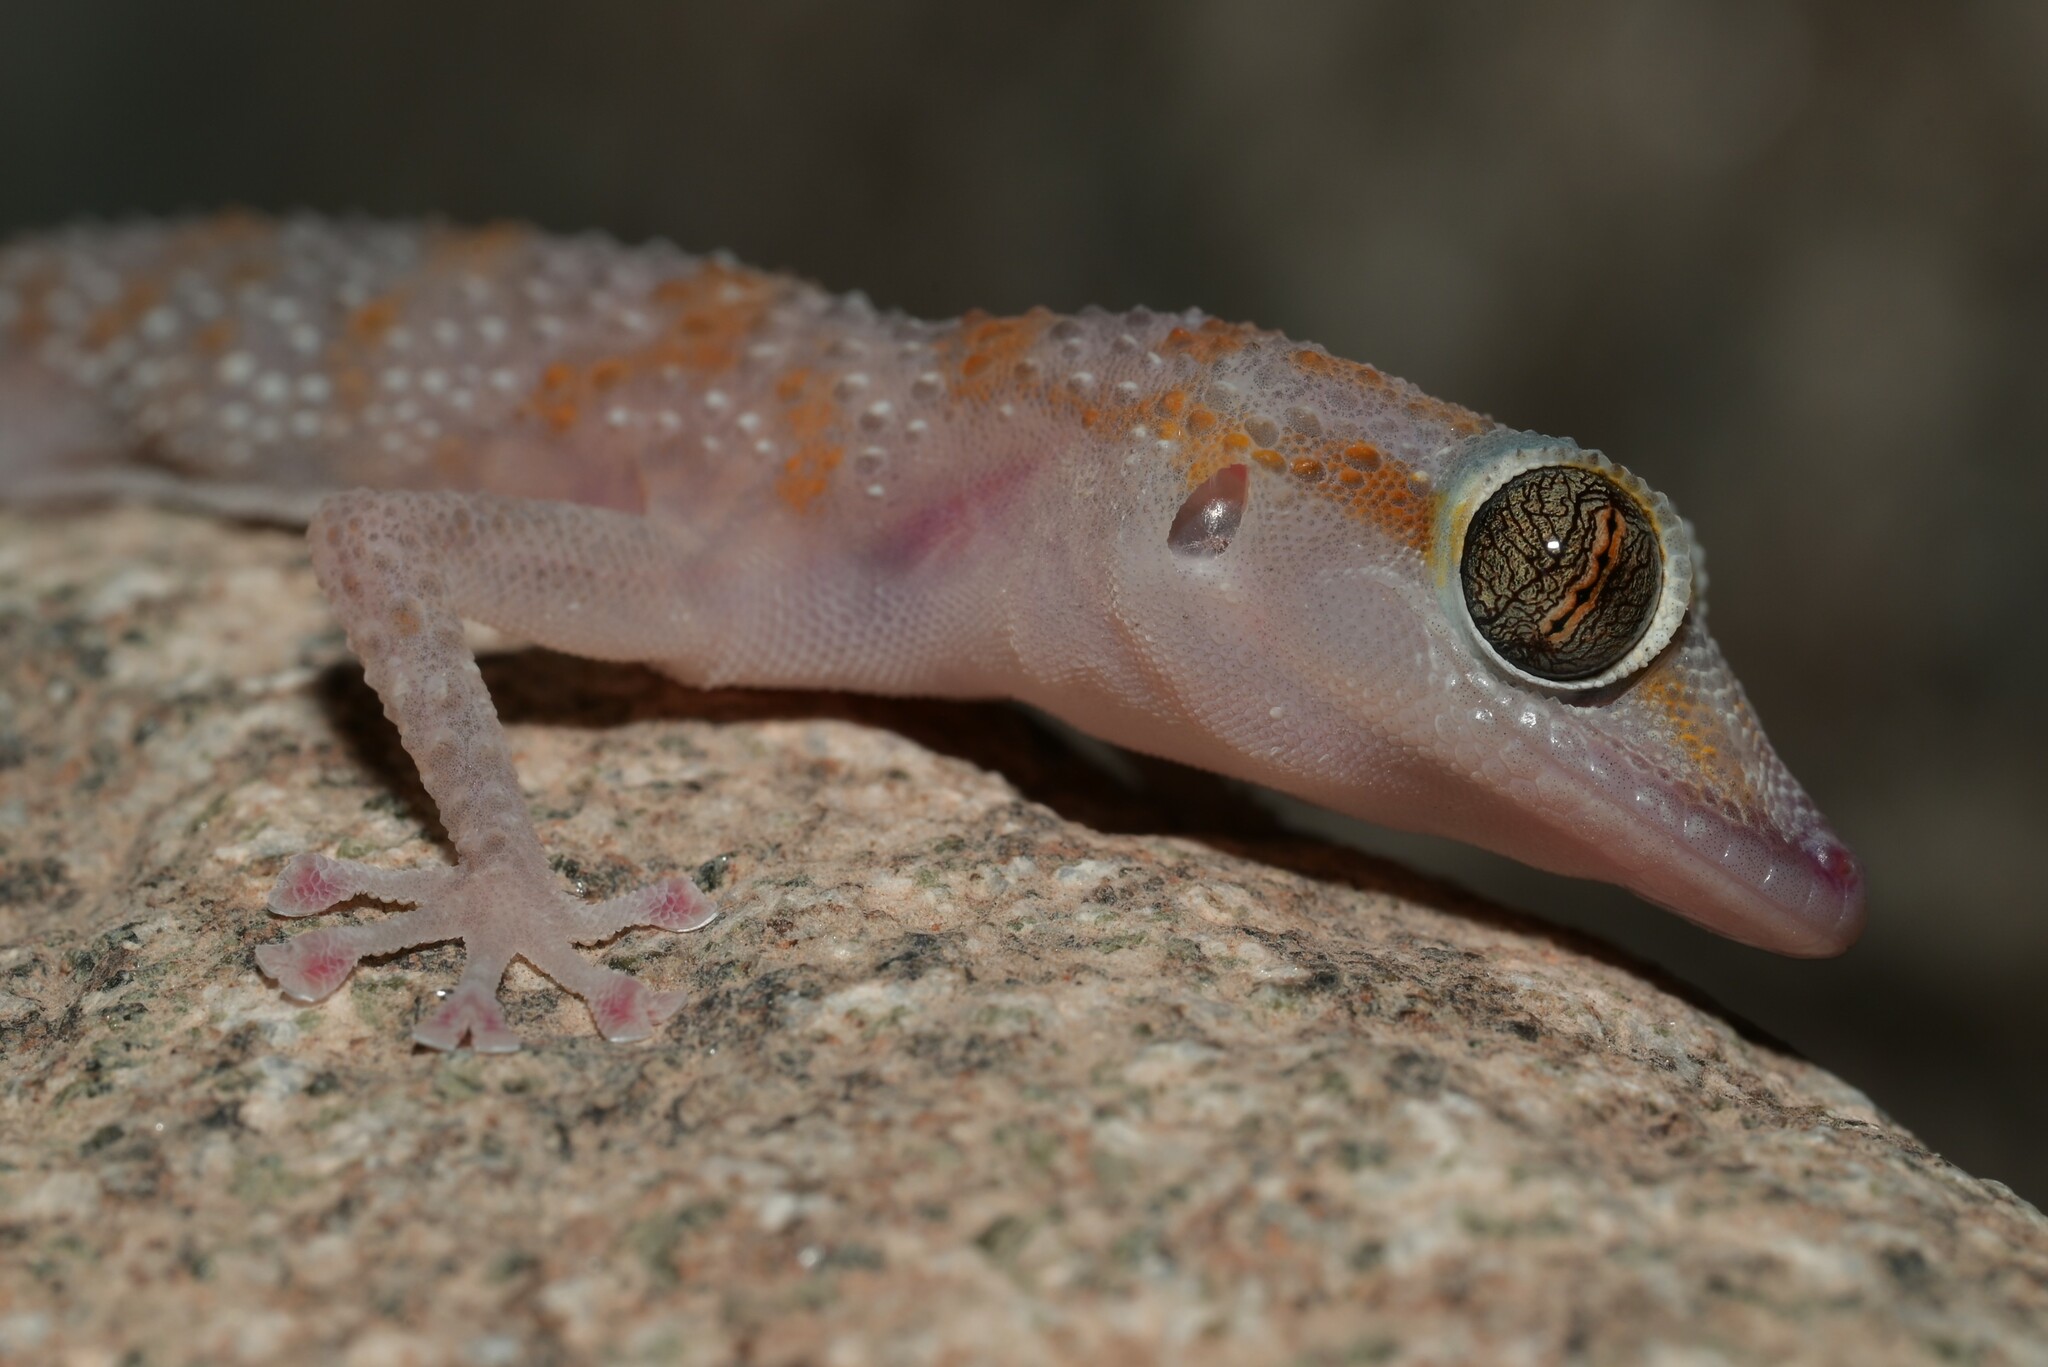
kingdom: Animalia
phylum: Chordata
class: Squamata
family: Phyllodactylidae
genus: Asaccus
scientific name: Asaccus margaritae
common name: Margarita’s leaf-toed gecko
